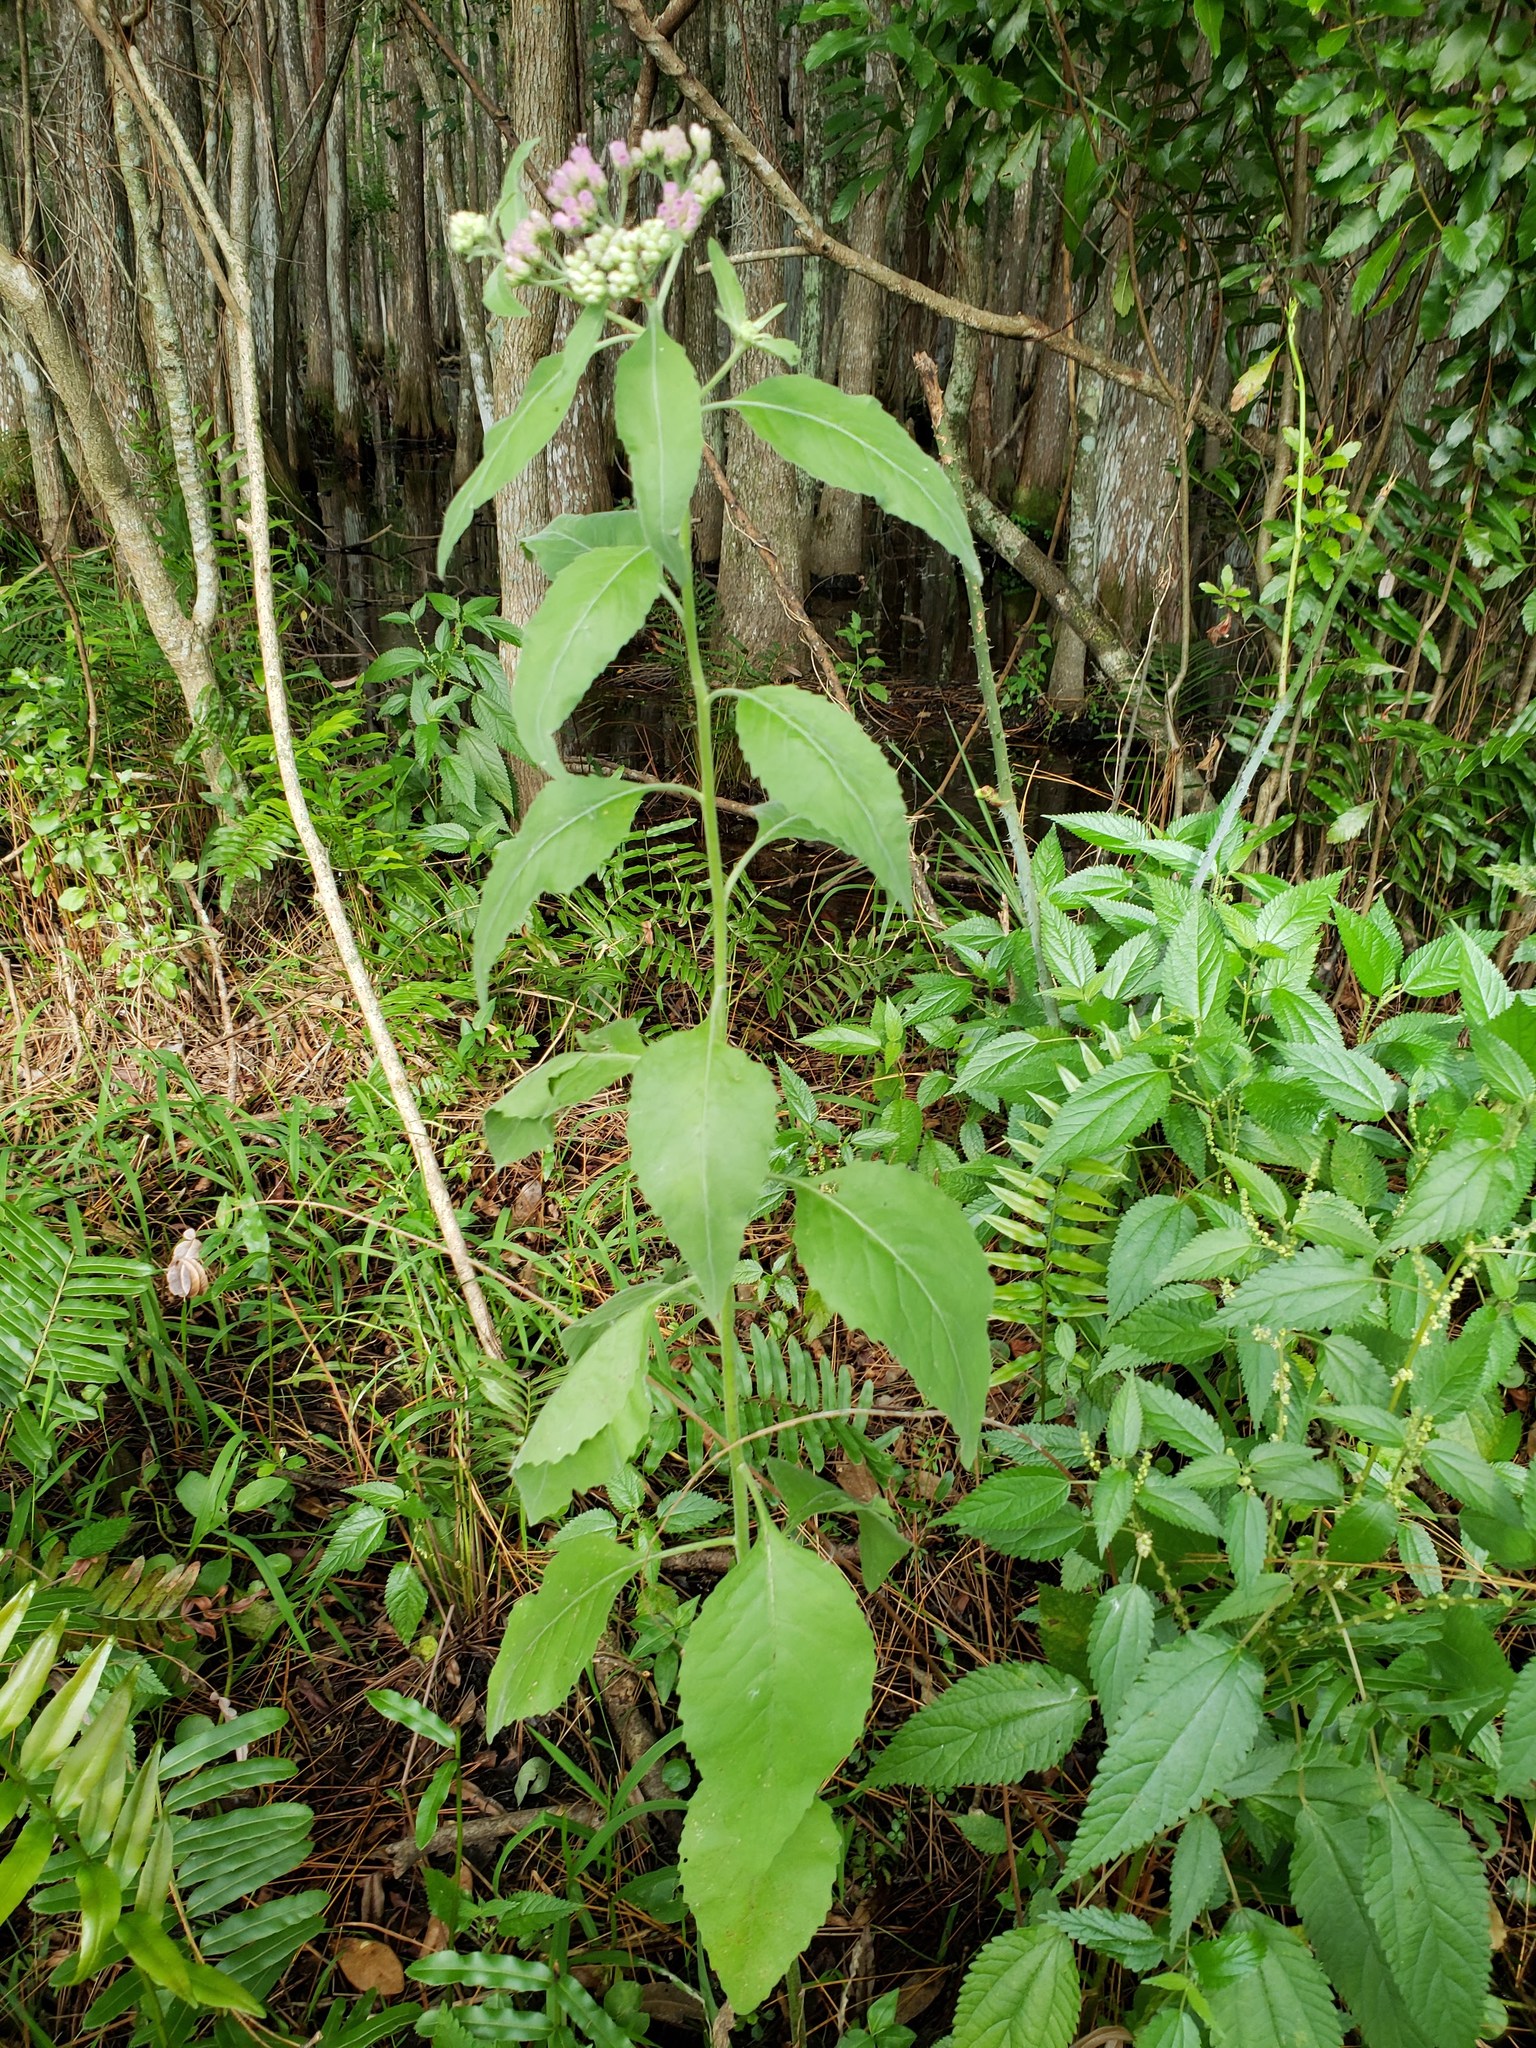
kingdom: Plantae
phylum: Tracheophyta
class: Magnoliopsida
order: Asterales
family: Asteraceae
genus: Pluchea
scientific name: Pluchea odorata
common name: Saltmarsh fleabane
